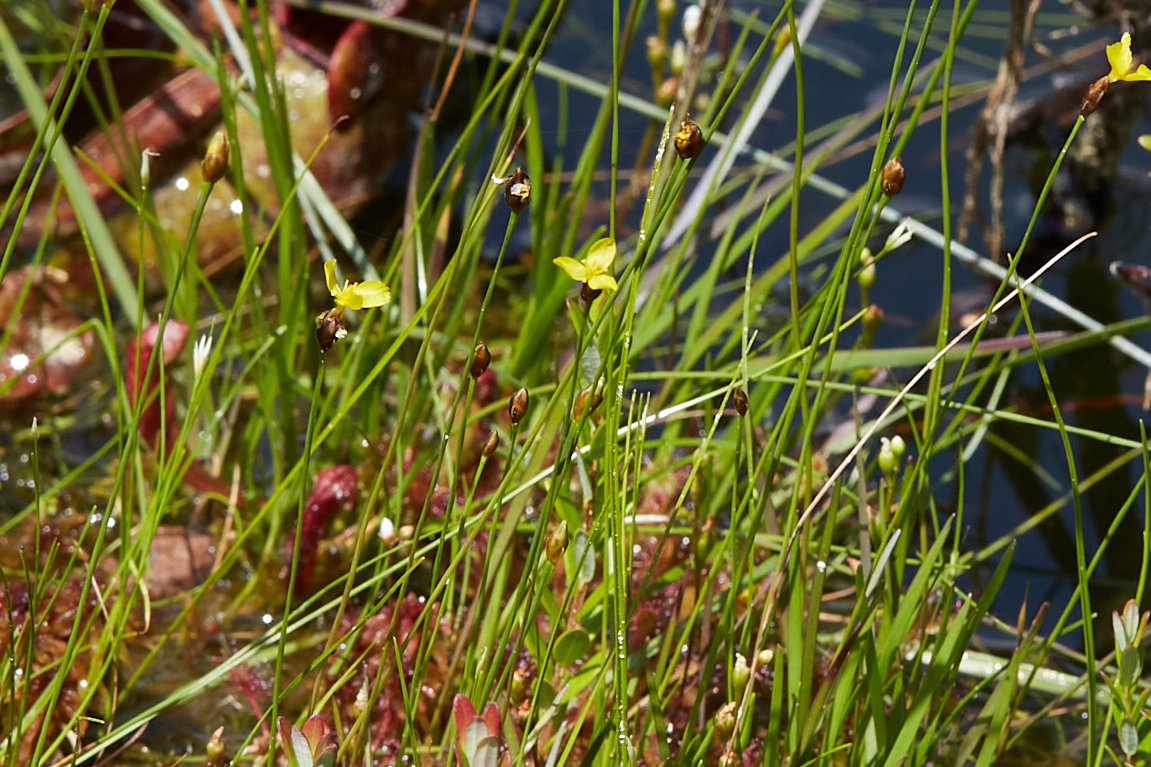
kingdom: Plantae
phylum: Tracheophyta
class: Liliopsida
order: Poales
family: Xyridaceae
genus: Xyris
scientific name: Xyris montana
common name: Northern yellow-eyed-grass
